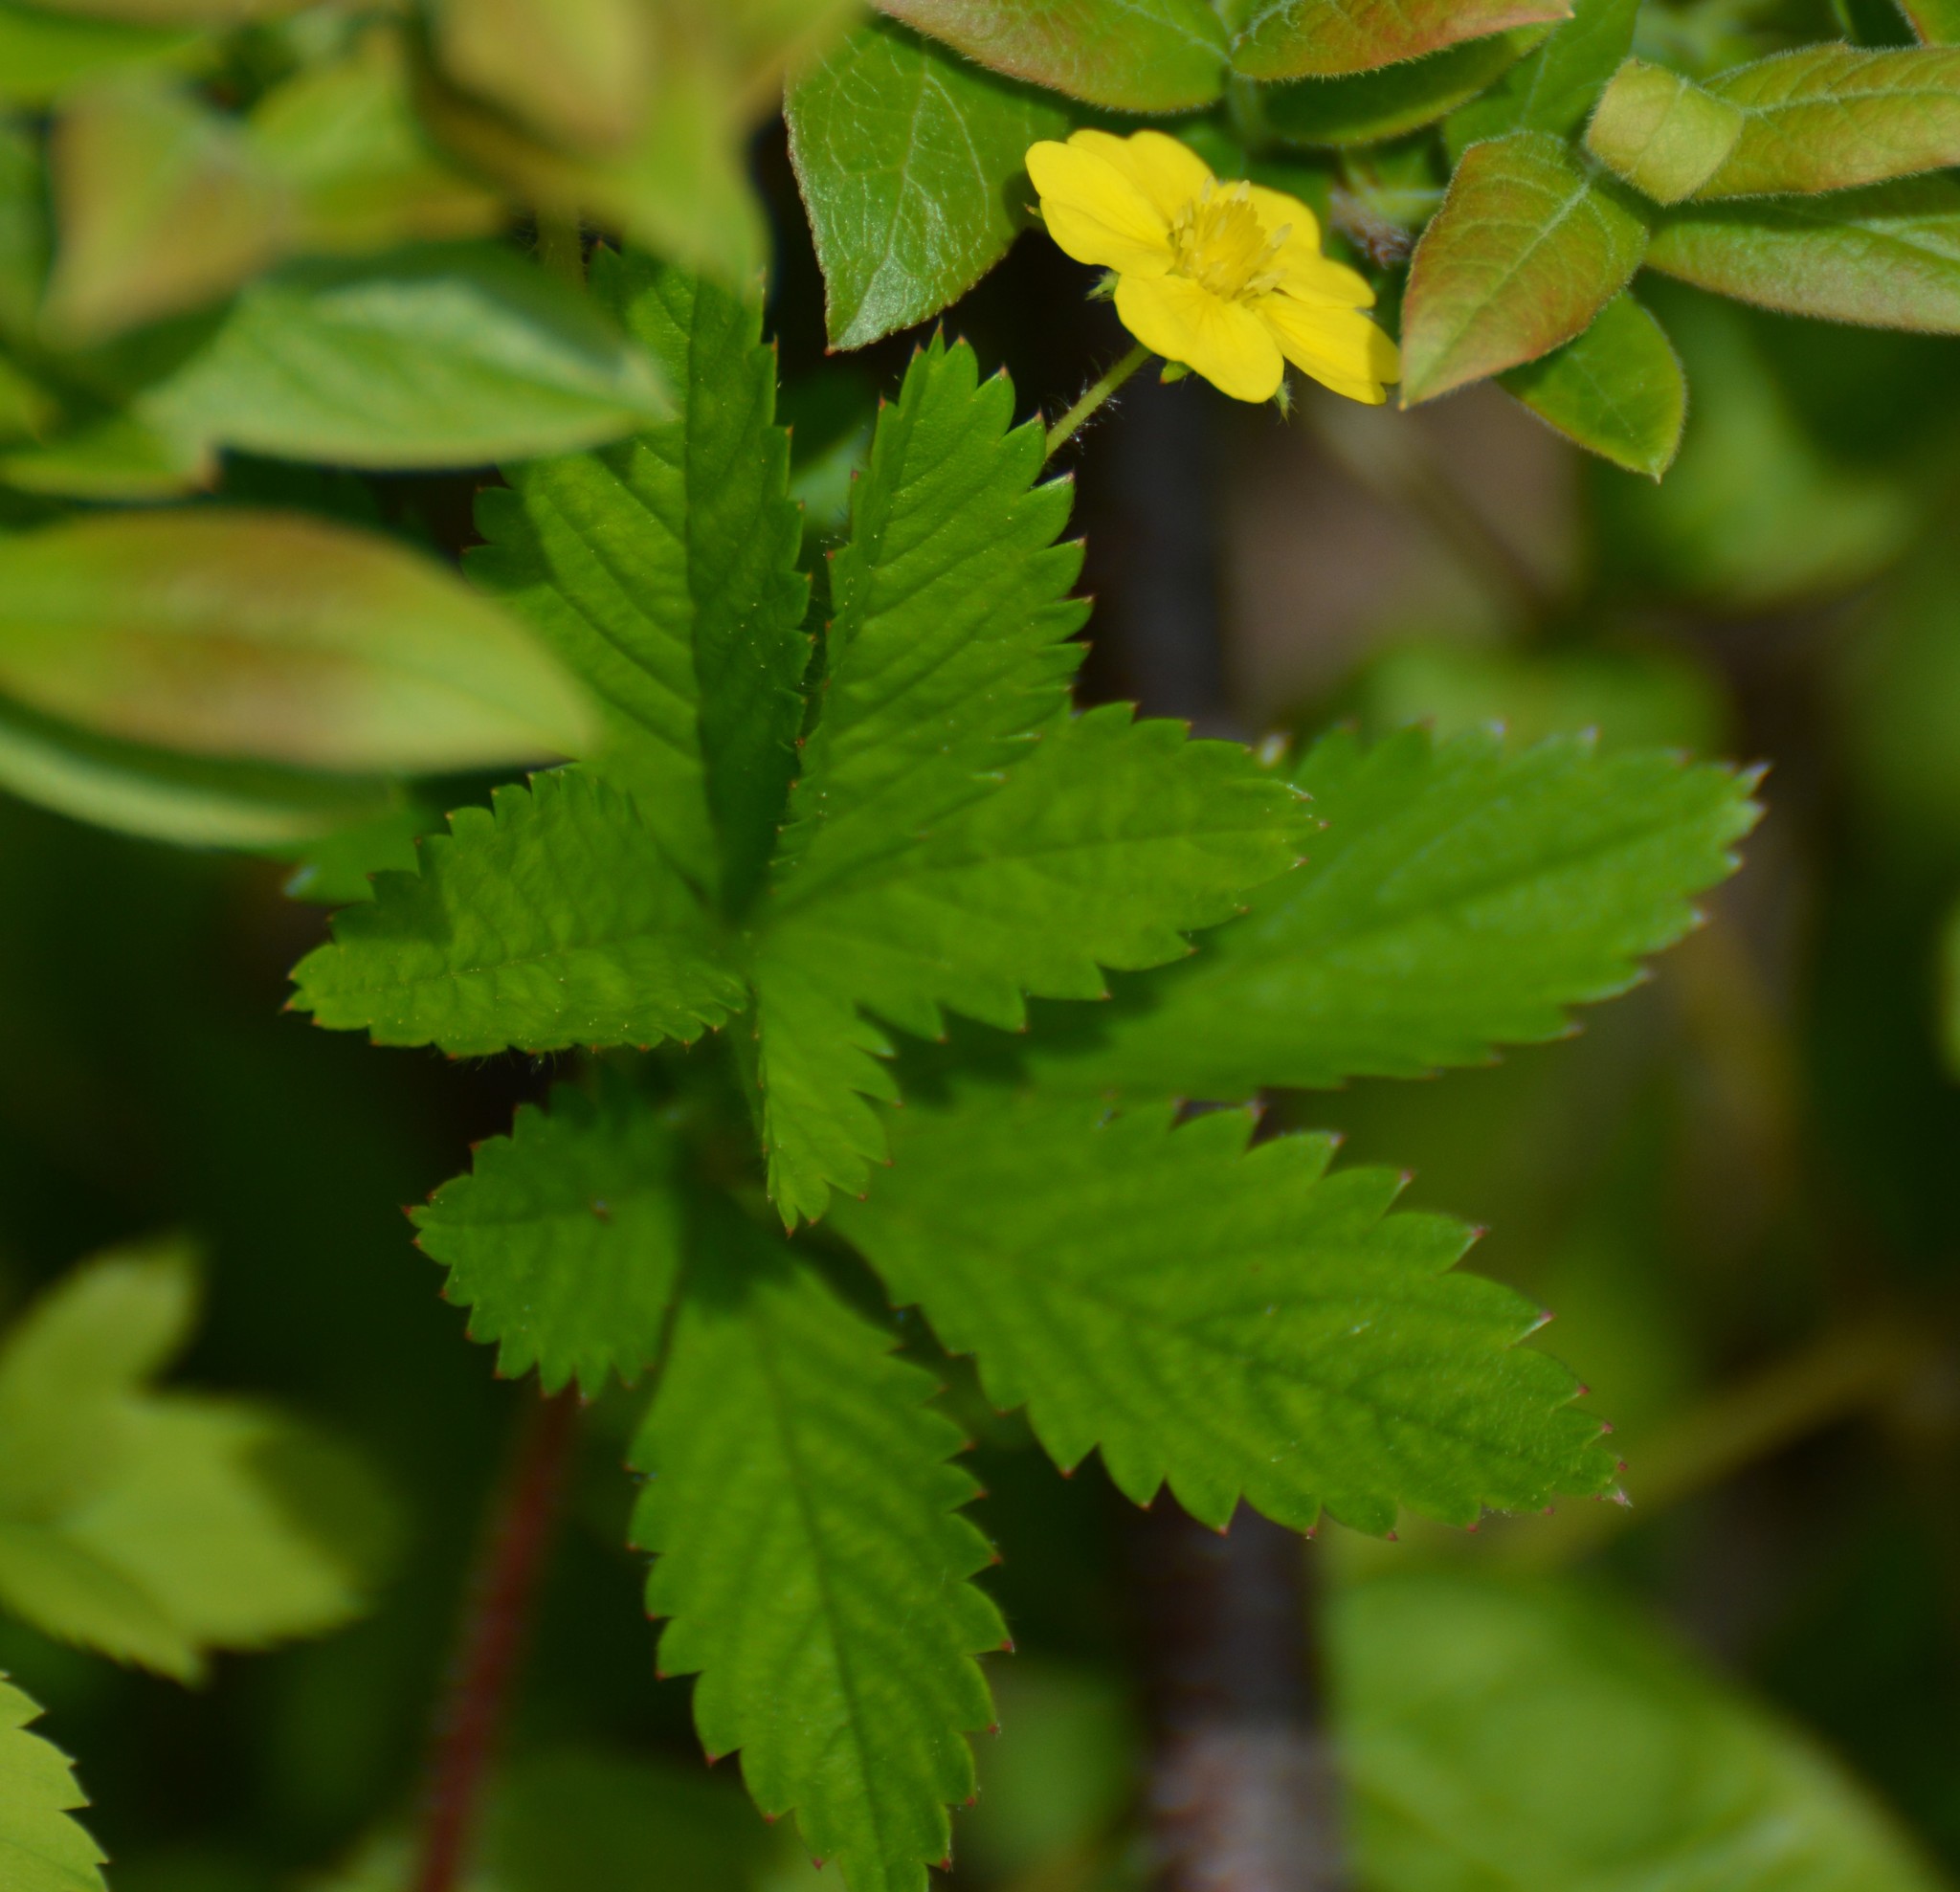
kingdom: Plantae
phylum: Tracheophyta
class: Magnoliopsida
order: Rosales
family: Rosaceae
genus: Potentilla
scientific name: Potentilla simplex
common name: Old field cinquefoil
